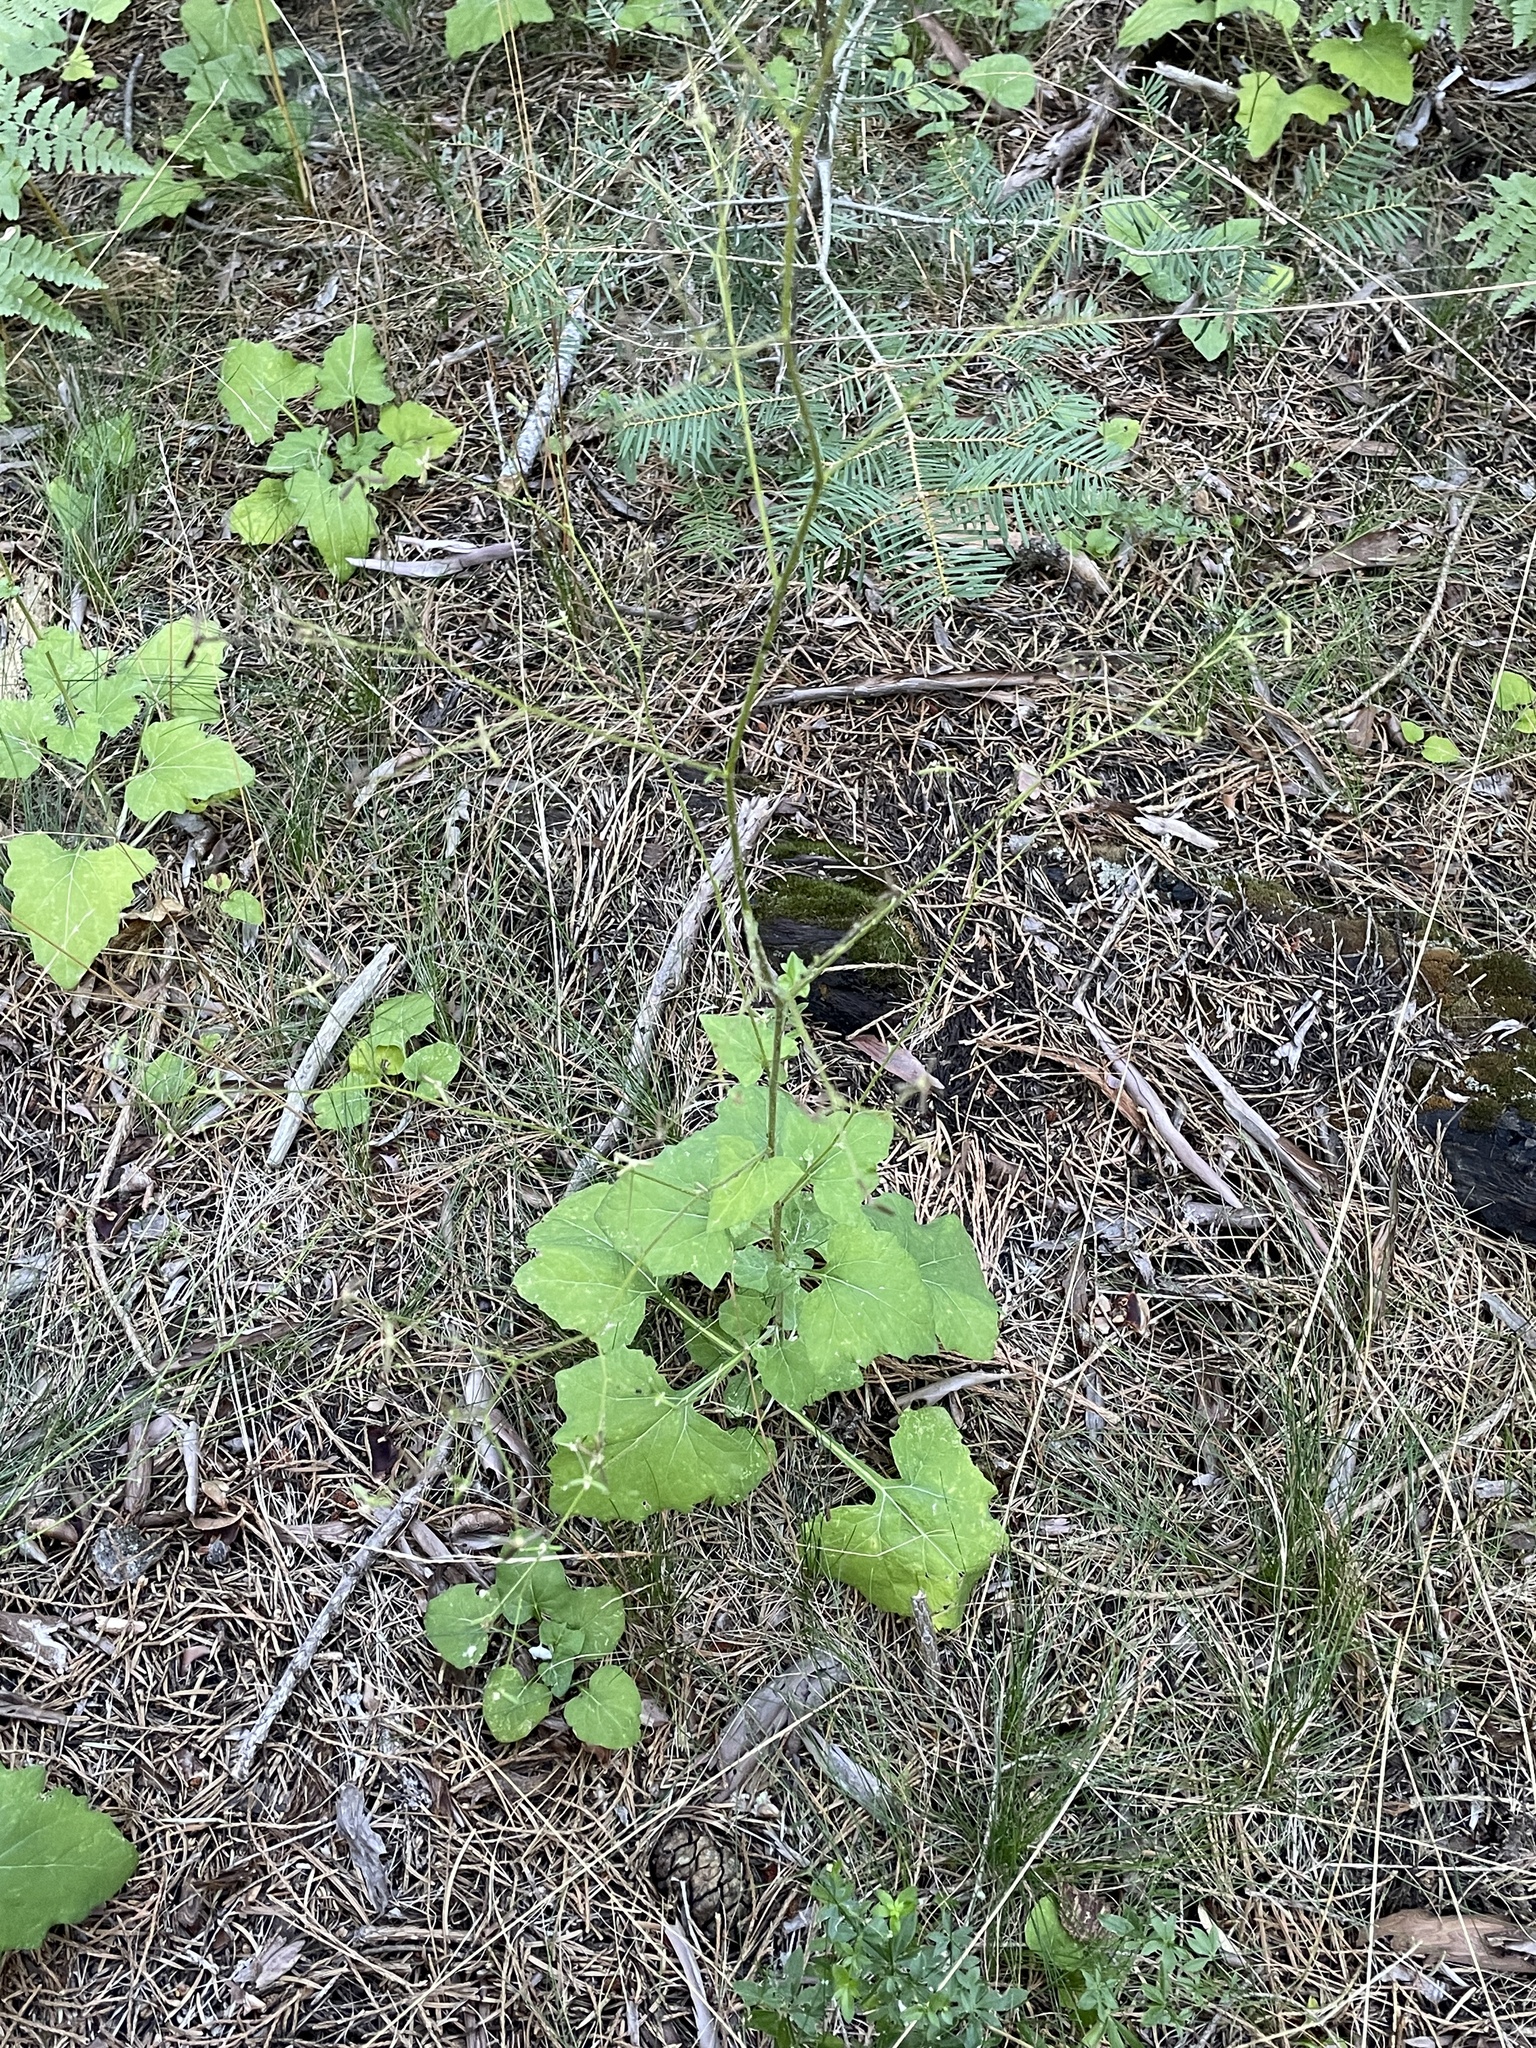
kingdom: Plantae
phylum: Tracheophyta
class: Magnoliopsida
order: Asterales
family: Asteraceae
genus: Adenocaulon
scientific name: Adenocaulon bicolor
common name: Trailplant
